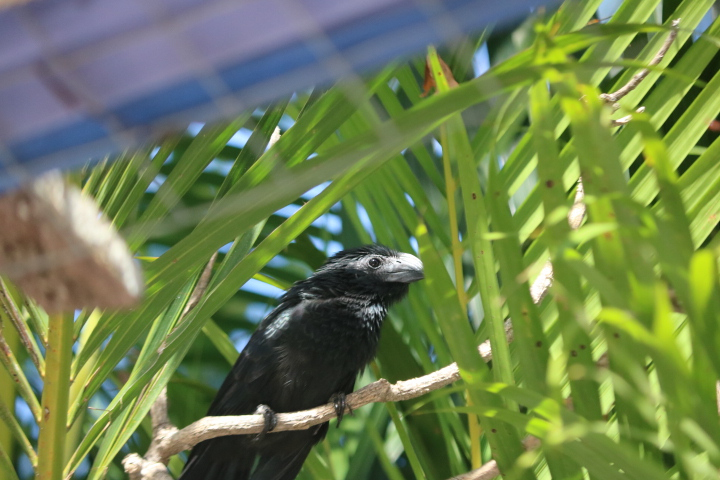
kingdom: Animalia
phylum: Chordata
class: Aves
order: Cuculiformes
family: Cuculidae
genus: Crotophaga
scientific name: Crotophaga sulcirostris
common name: Groove-billed ani
